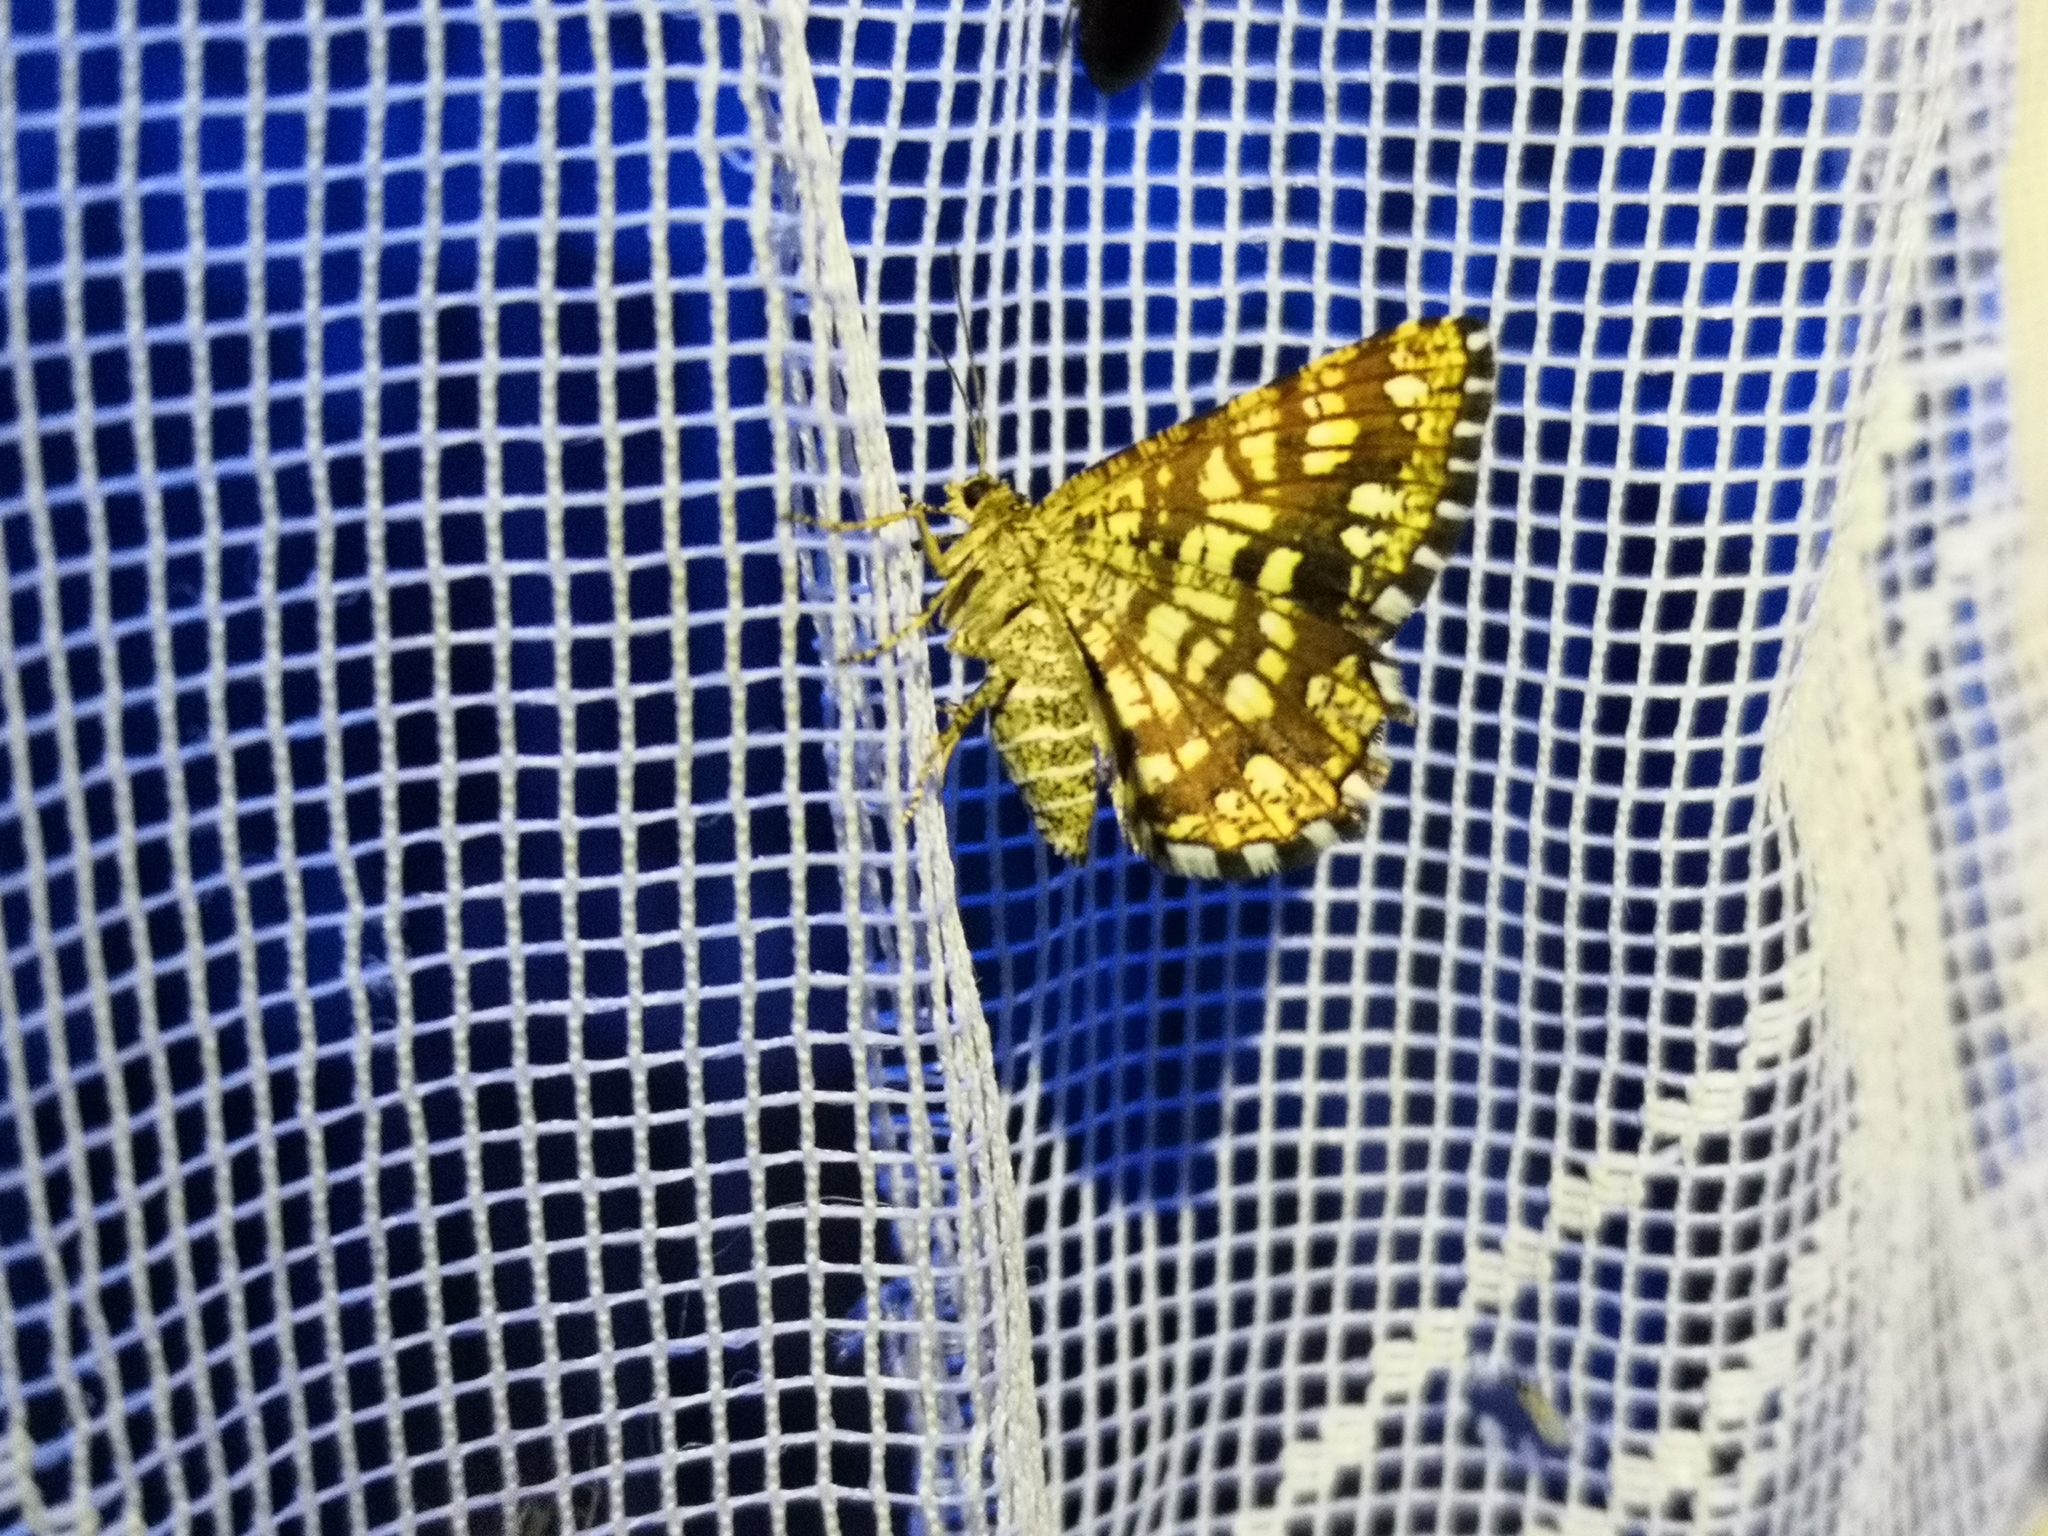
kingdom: Animalia
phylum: Arthropoda
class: Insecta
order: Lepidoptera
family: Geometridae
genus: Chiasmia
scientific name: Chiasmia clathrata
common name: Latticed heath
